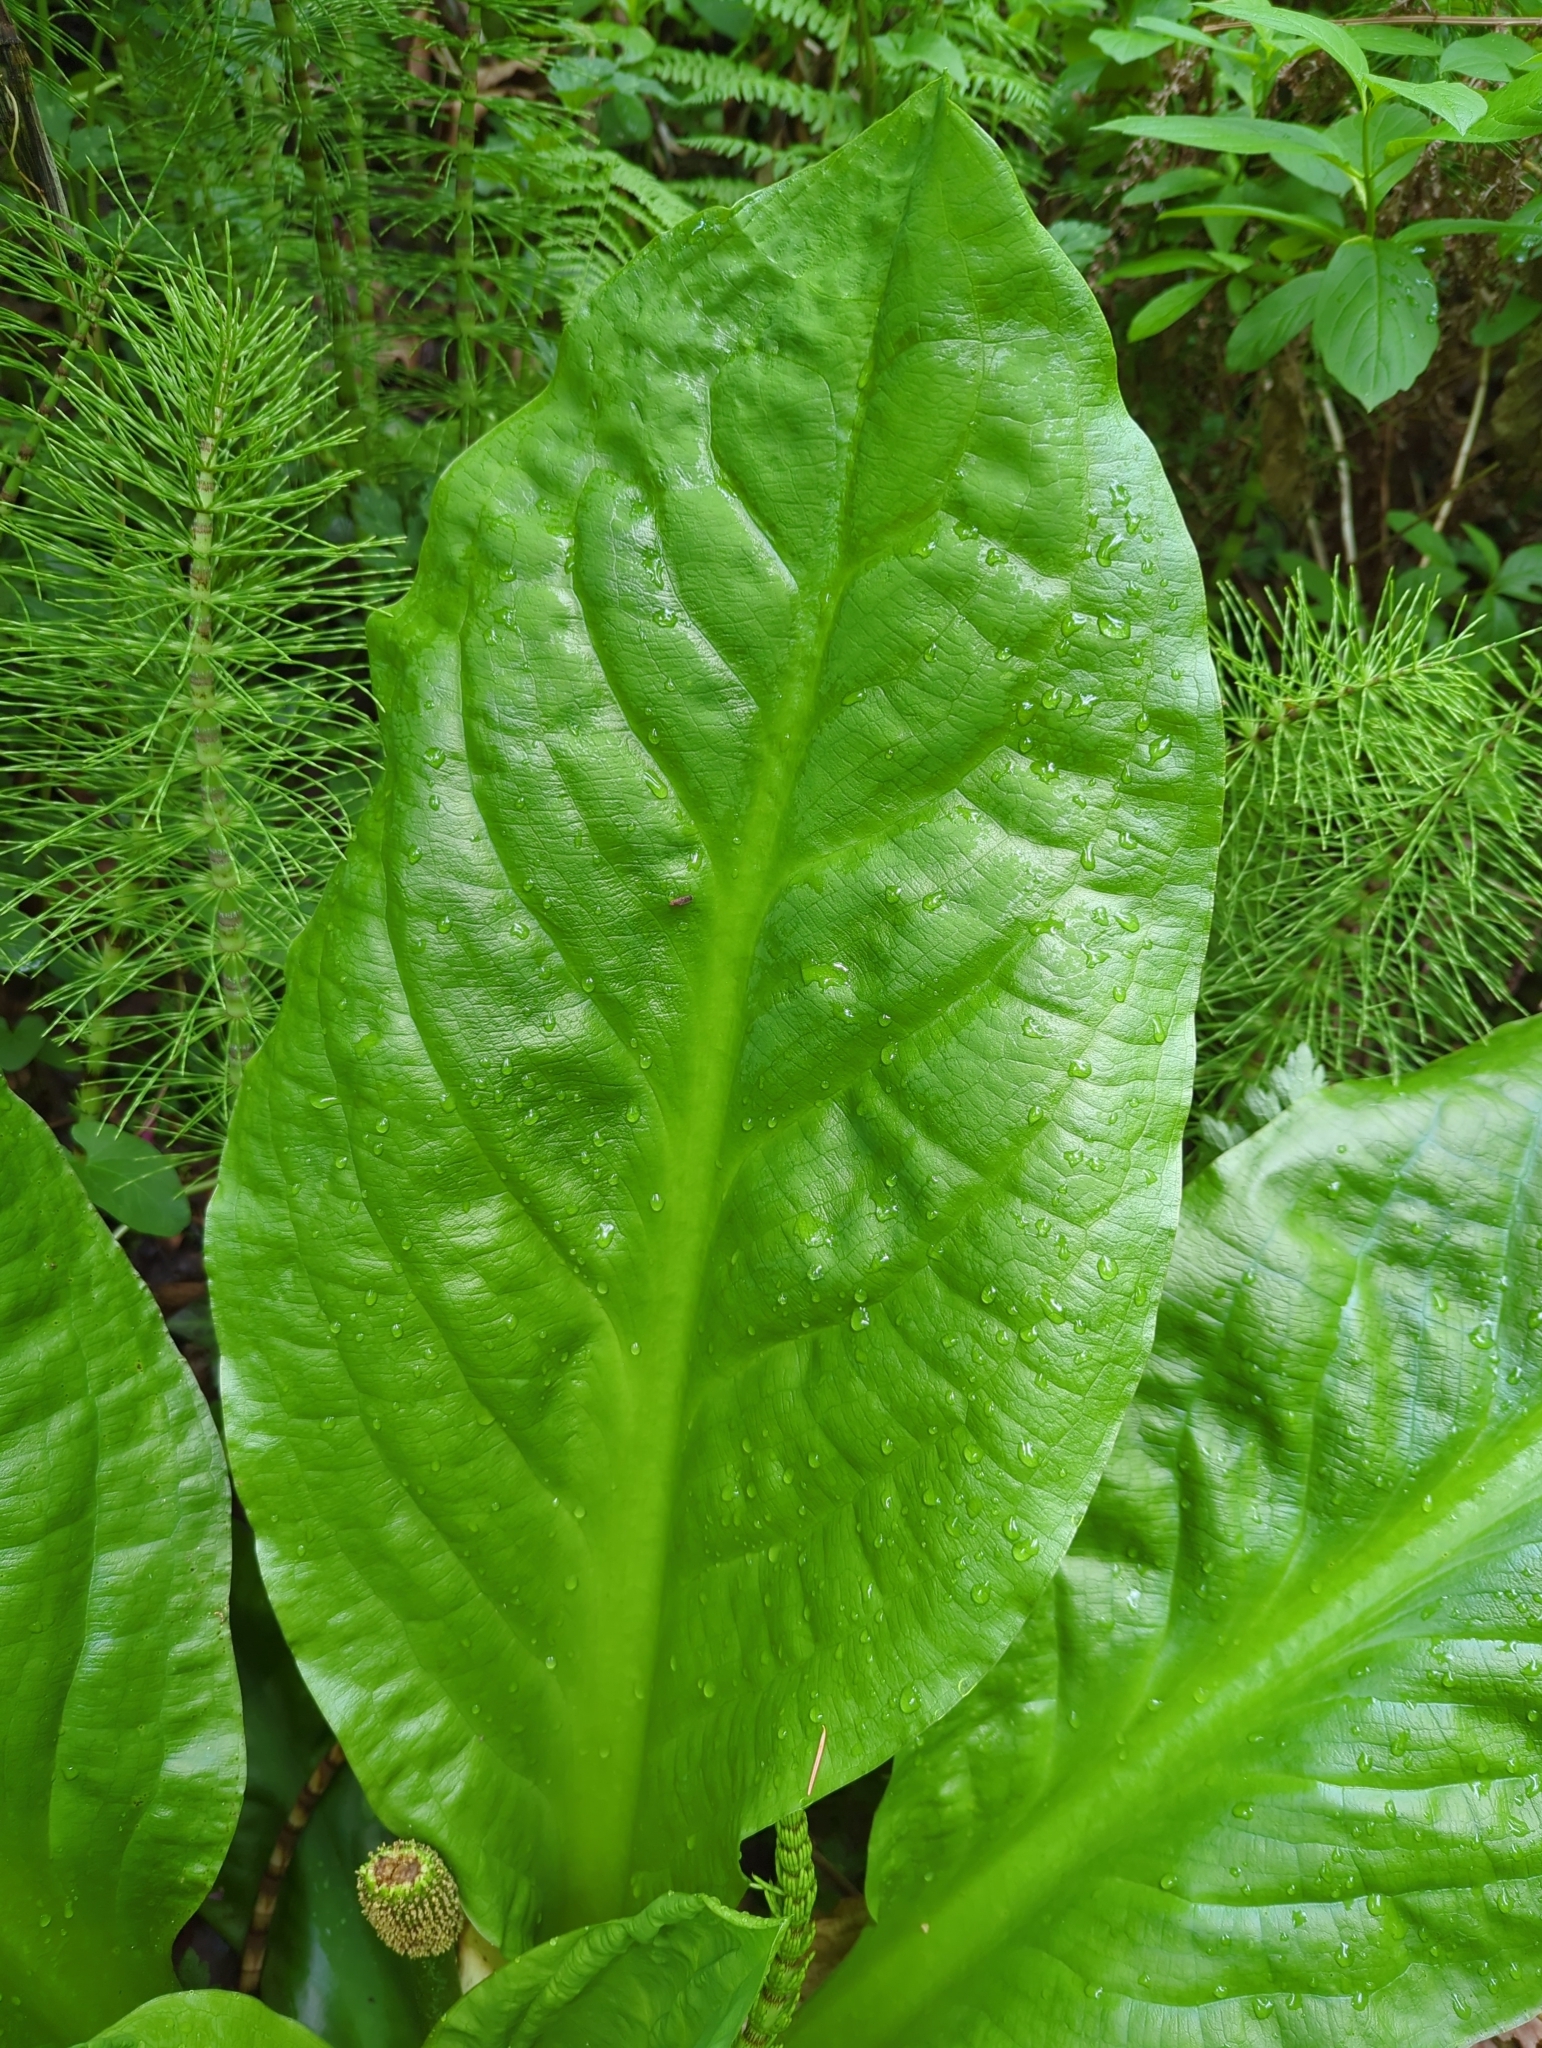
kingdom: Plantae
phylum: Tracheophyta
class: Liliopsida
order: Alismatales
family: Araceae
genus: Lysichiton
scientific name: Lysichiton americanus
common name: American skunk cabbage
